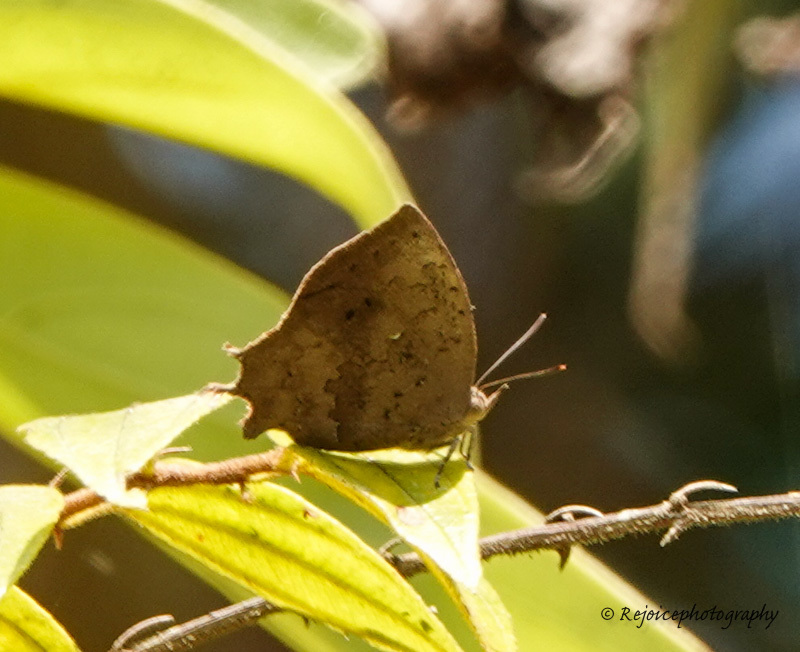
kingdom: Animalia
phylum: Arthropoda
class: Insecta
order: Lepidoptera
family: Lycaenidae
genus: Surendra
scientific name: Surendra quercetorum
